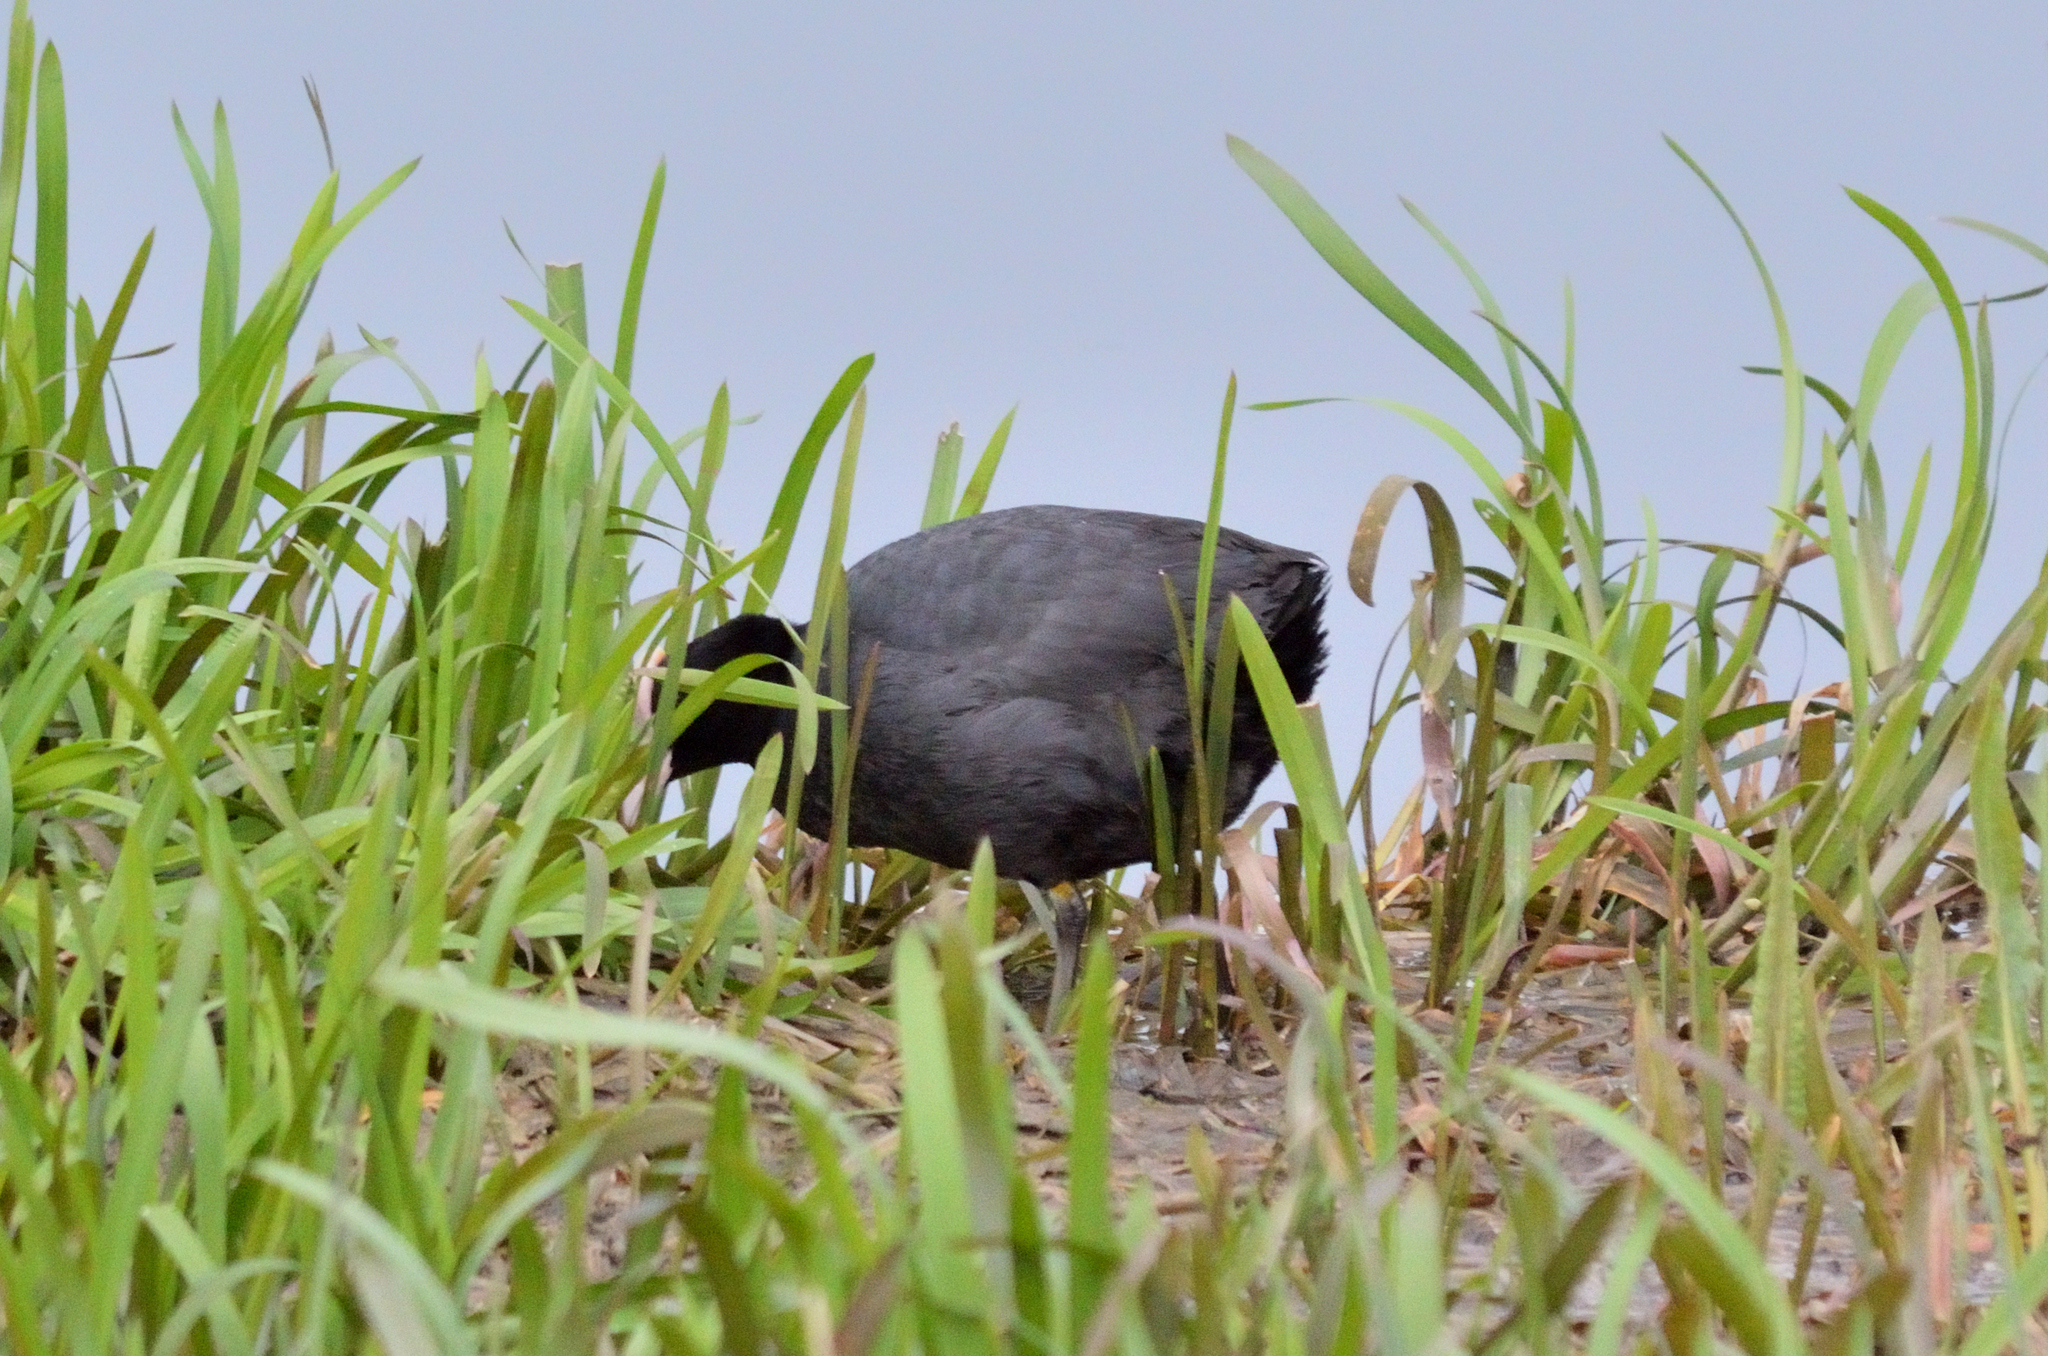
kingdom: Animalia
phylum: Chordata
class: Aves
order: Gruiformes
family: Rallidae
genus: Fulica
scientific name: Fulica atra
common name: Eurasian coot
